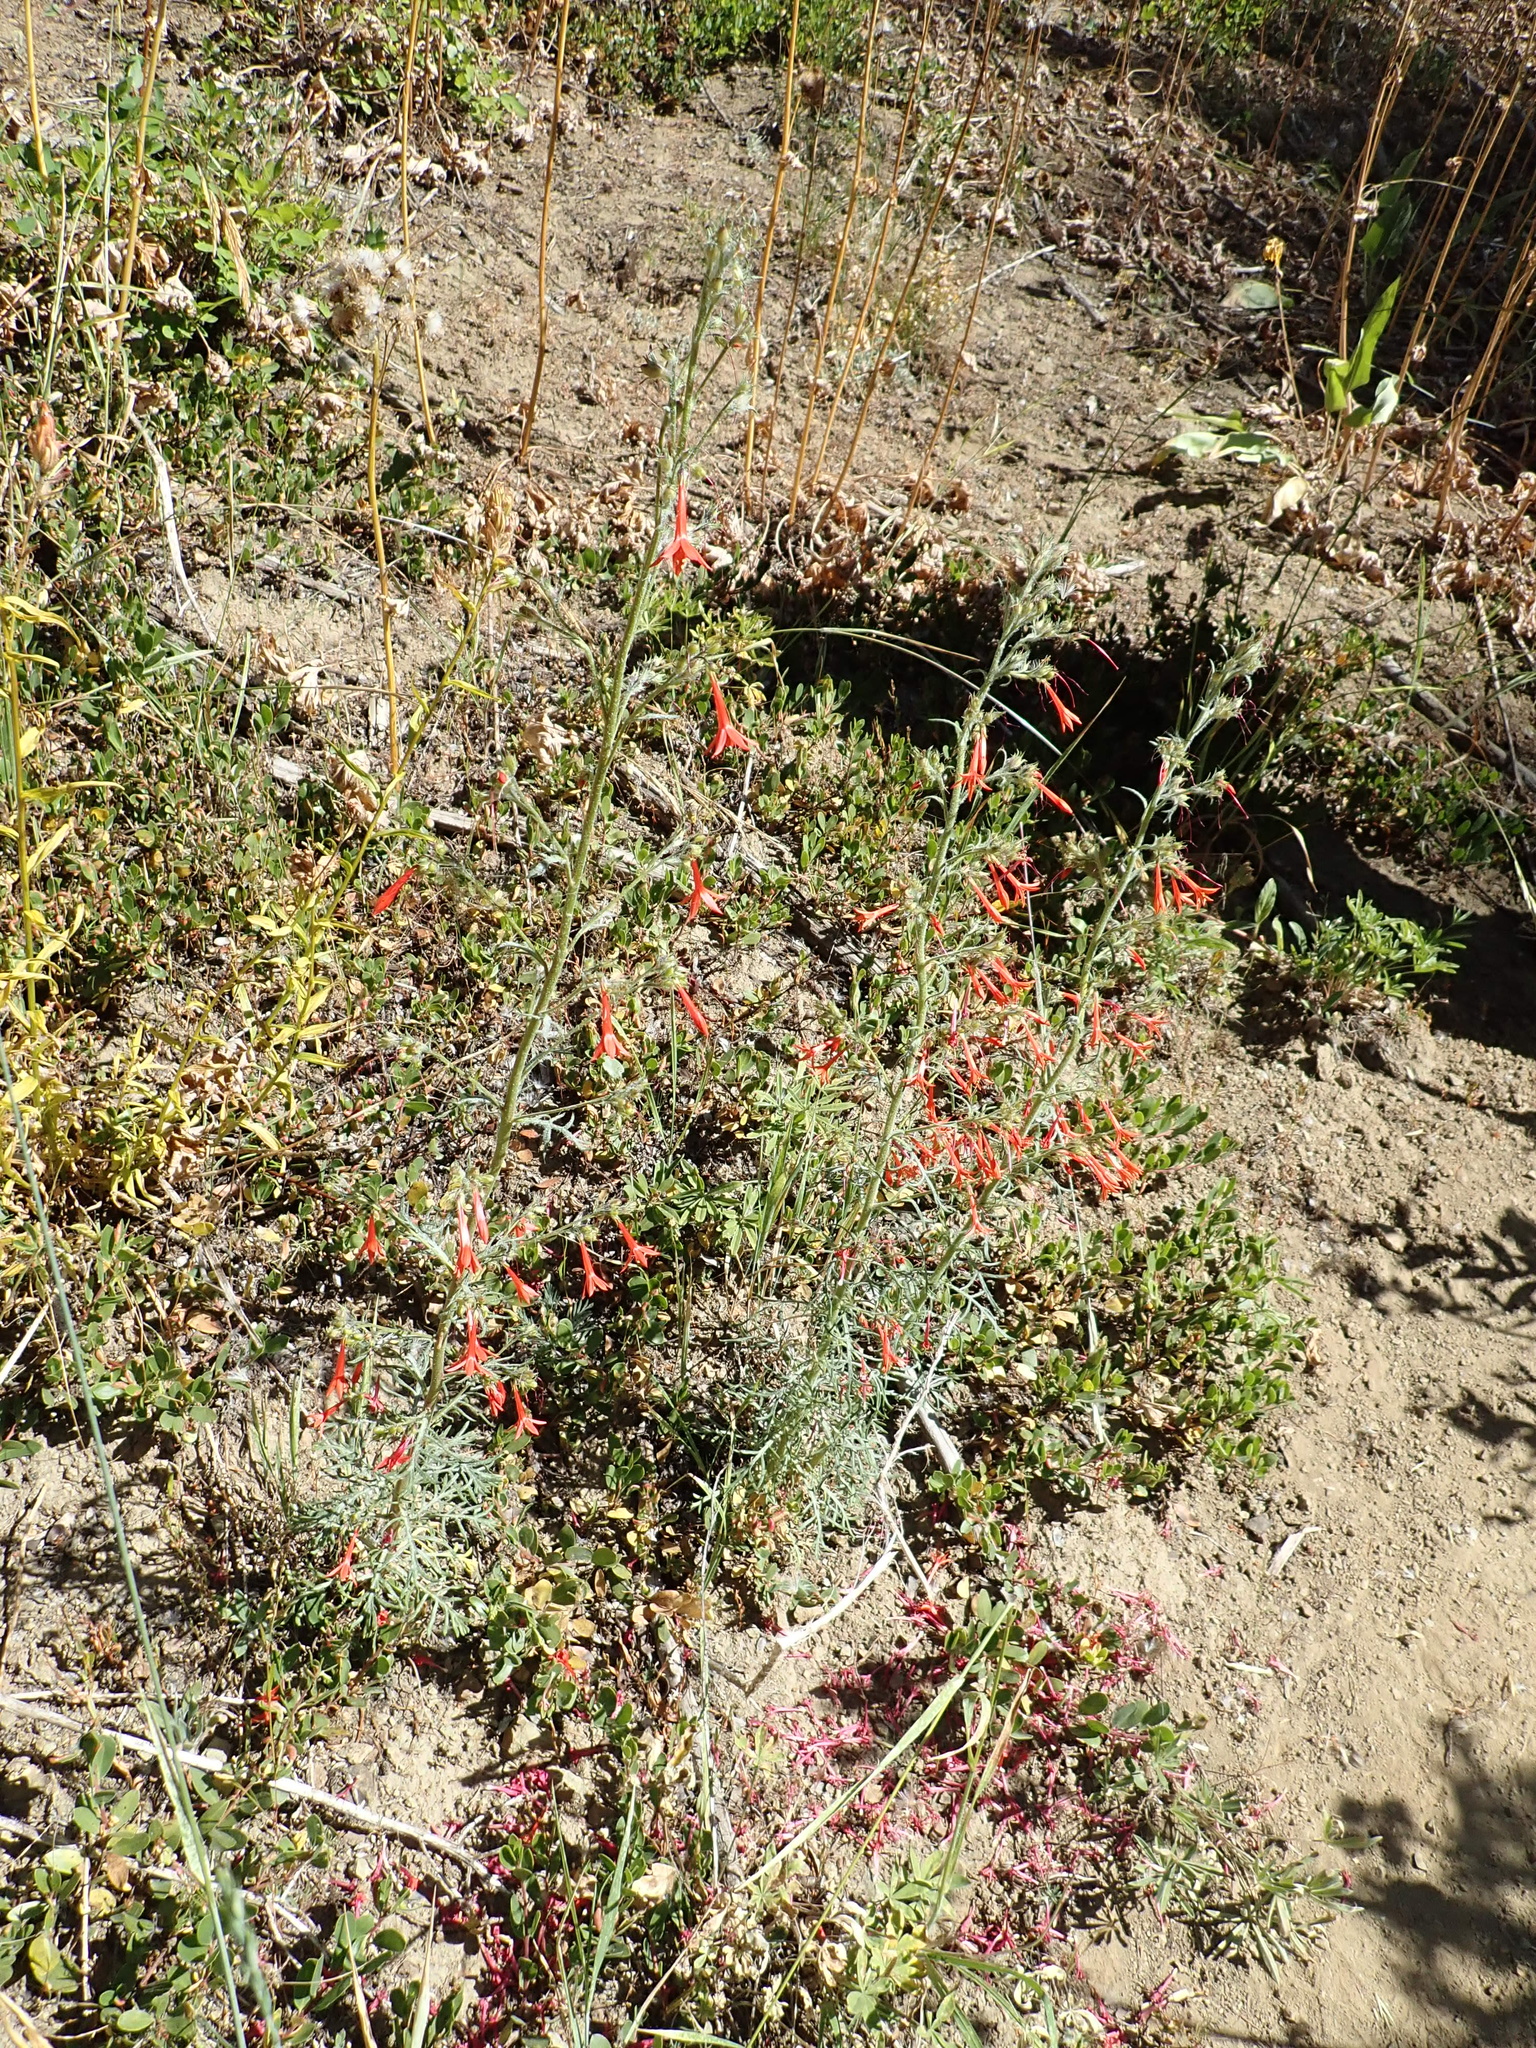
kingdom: Plantae
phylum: Tracheophyta
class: Magnoliopsida
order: Ericales
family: Polemoniaceae
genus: Ipomopsis
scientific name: Ipomopsis aggregata
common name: Scarlet gilia
